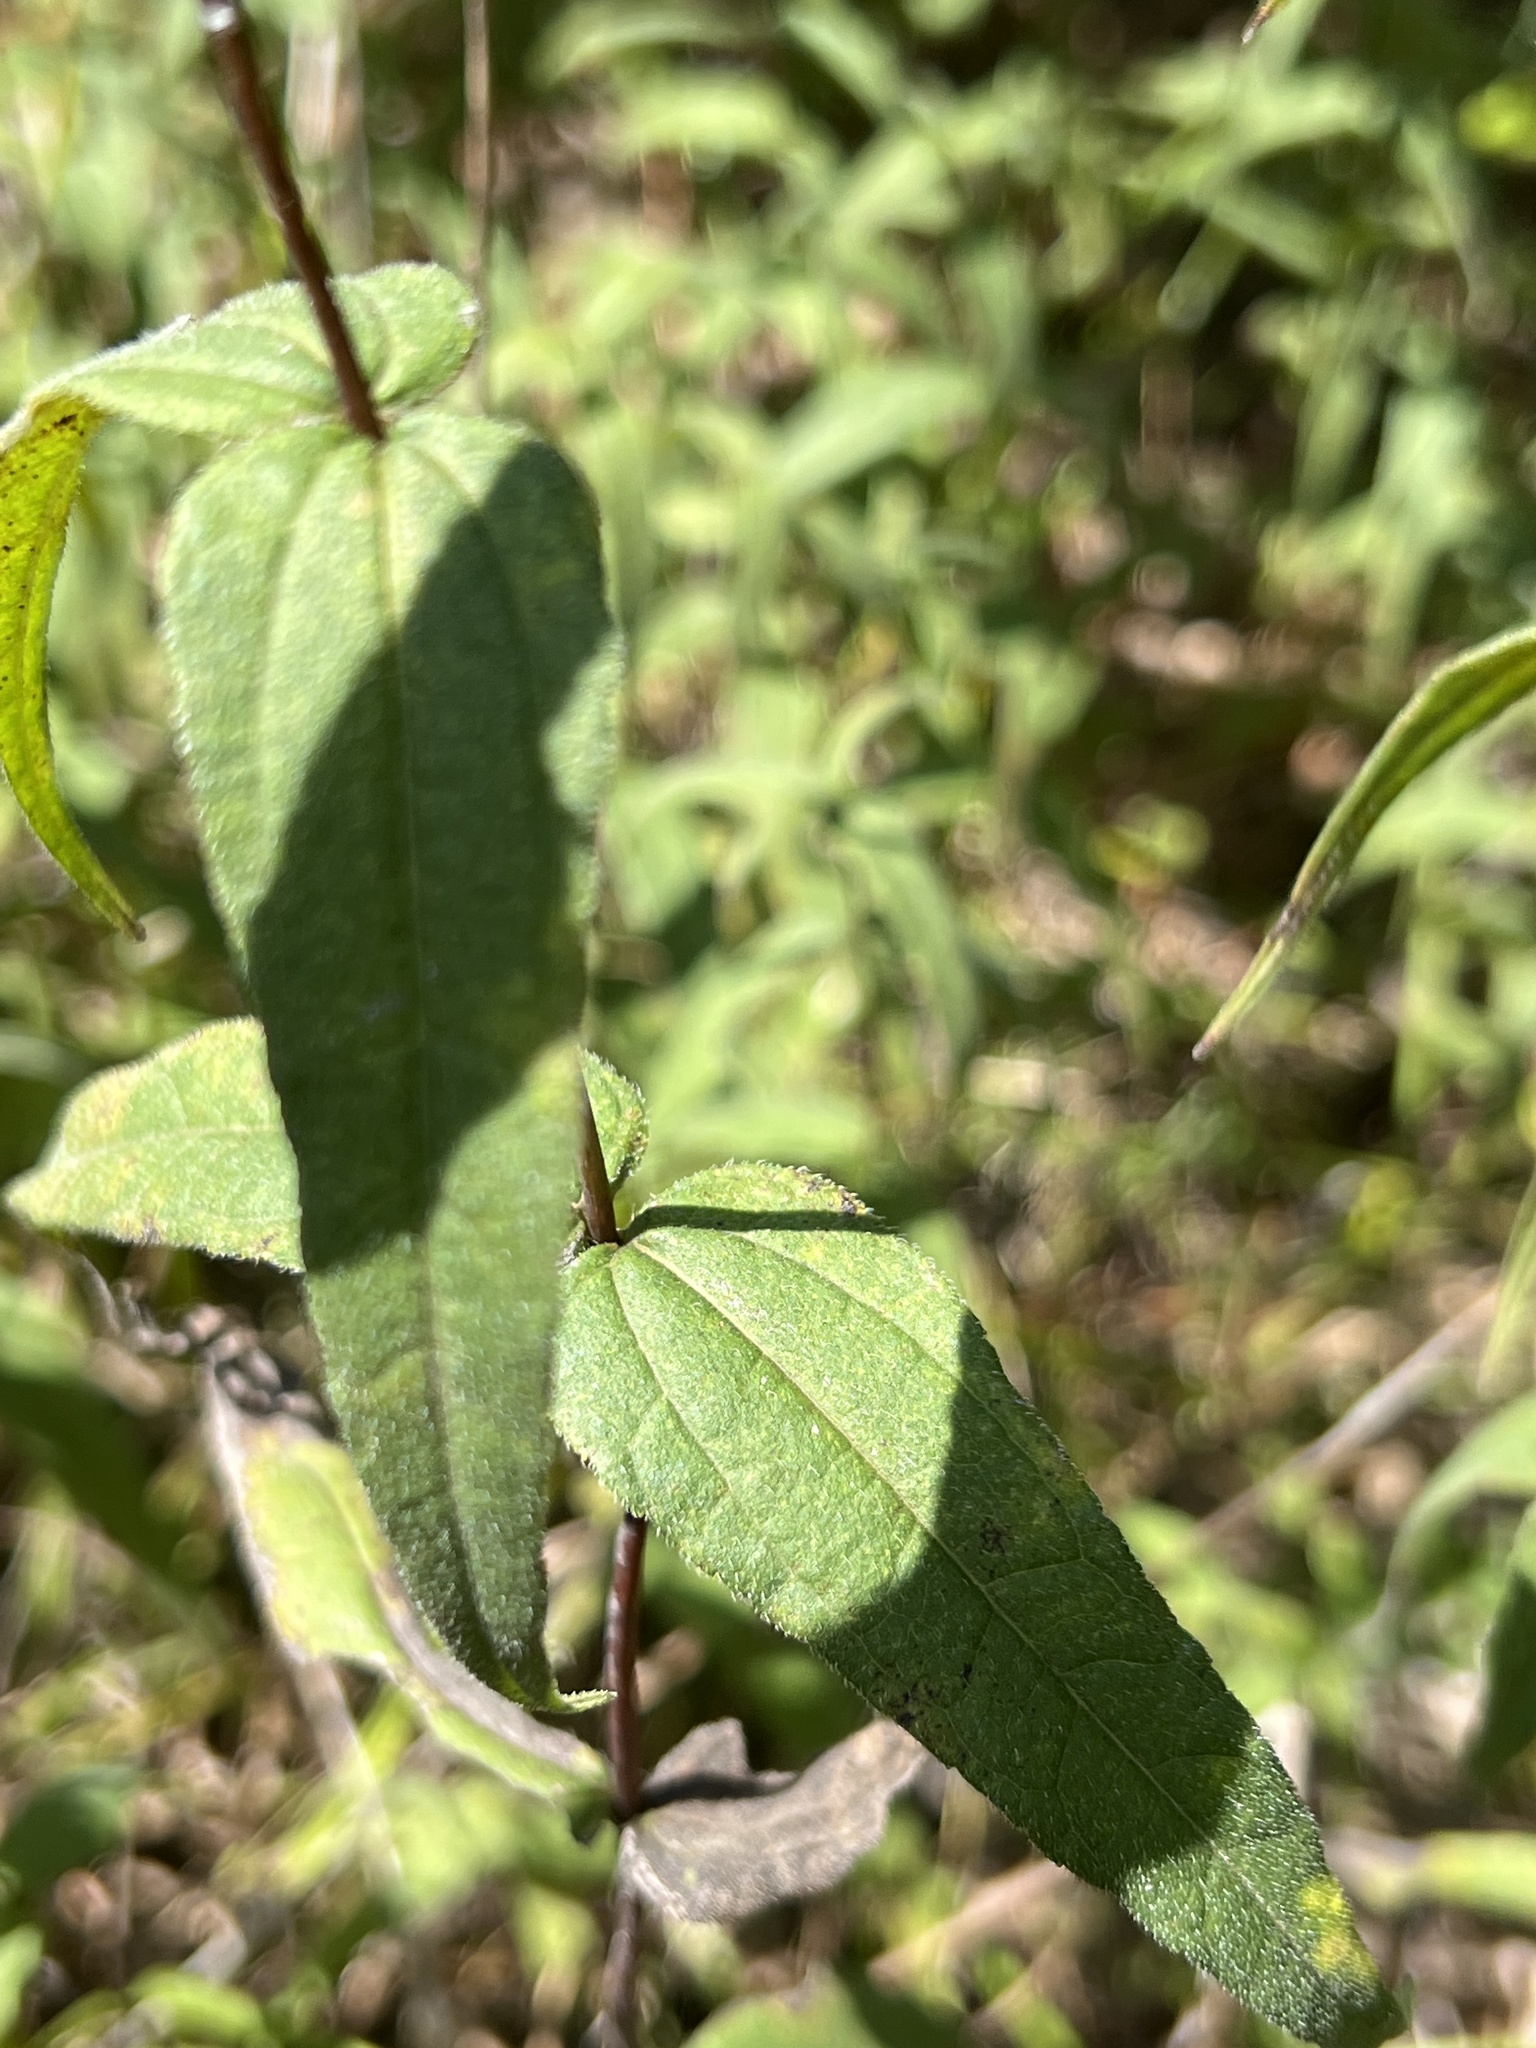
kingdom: Plantae
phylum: Tracheophyta
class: Magnoliopsida
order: Asterales
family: Asteraceae
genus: Helianthus
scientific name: Helianthus divaricatus
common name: Divergent sunflower
